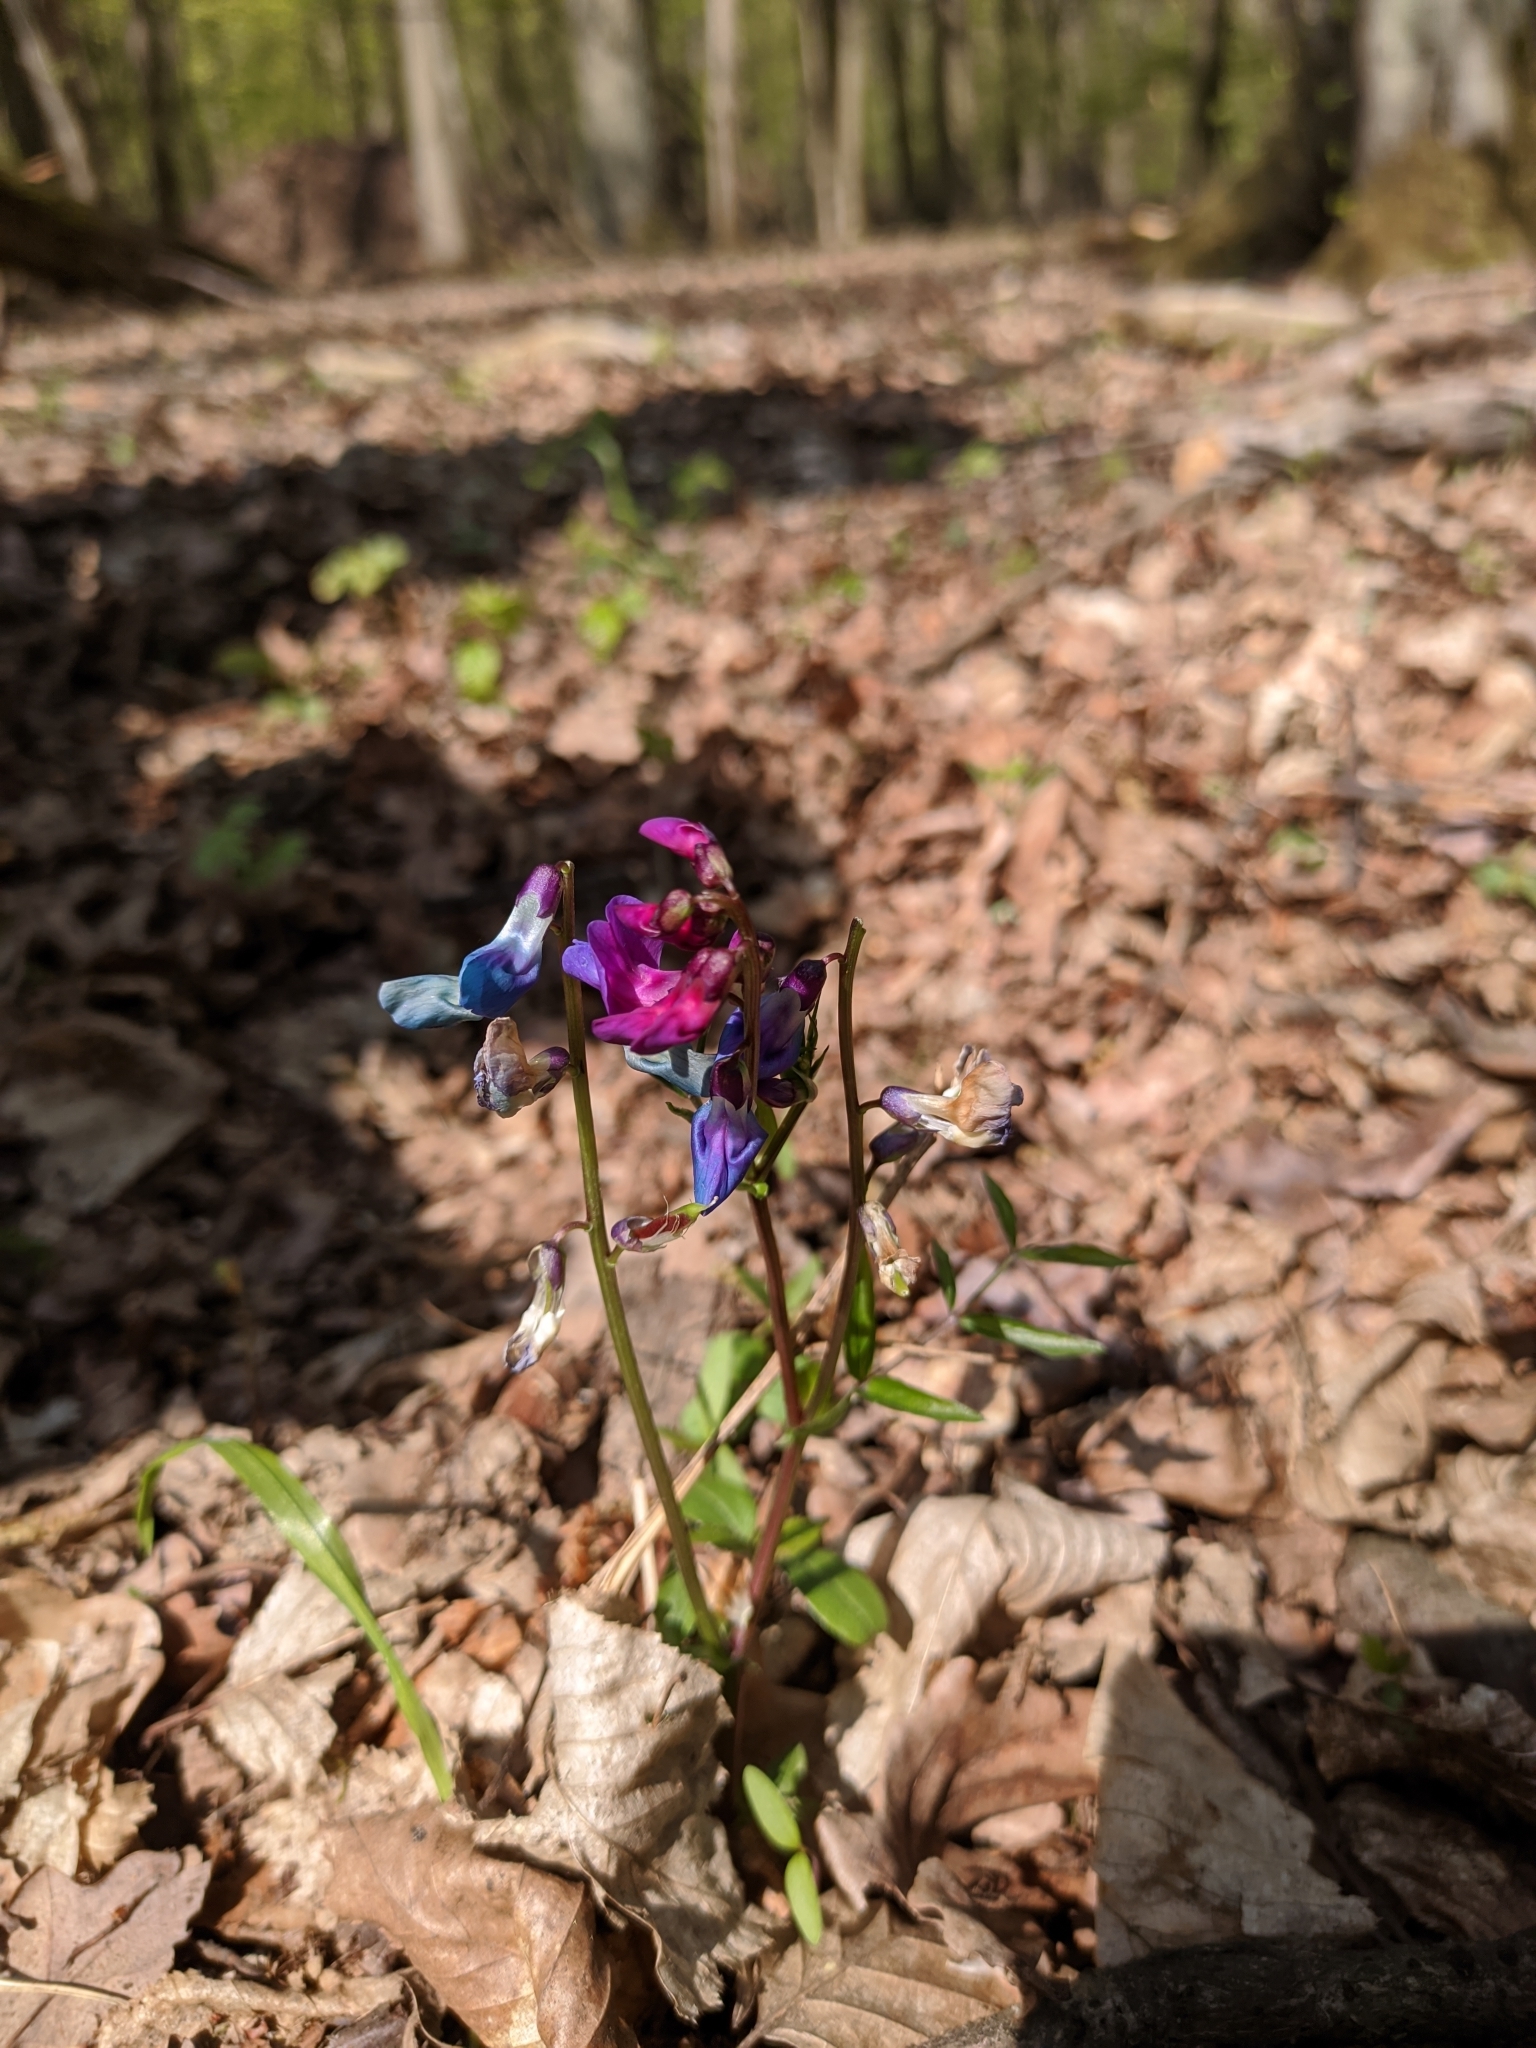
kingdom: Plantae
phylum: Tracheophyta
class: Magnoliopsida
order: Fabales
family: Fabaceae
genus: Lathyrus
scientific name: Lathyrus vernus
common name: Spring pea
